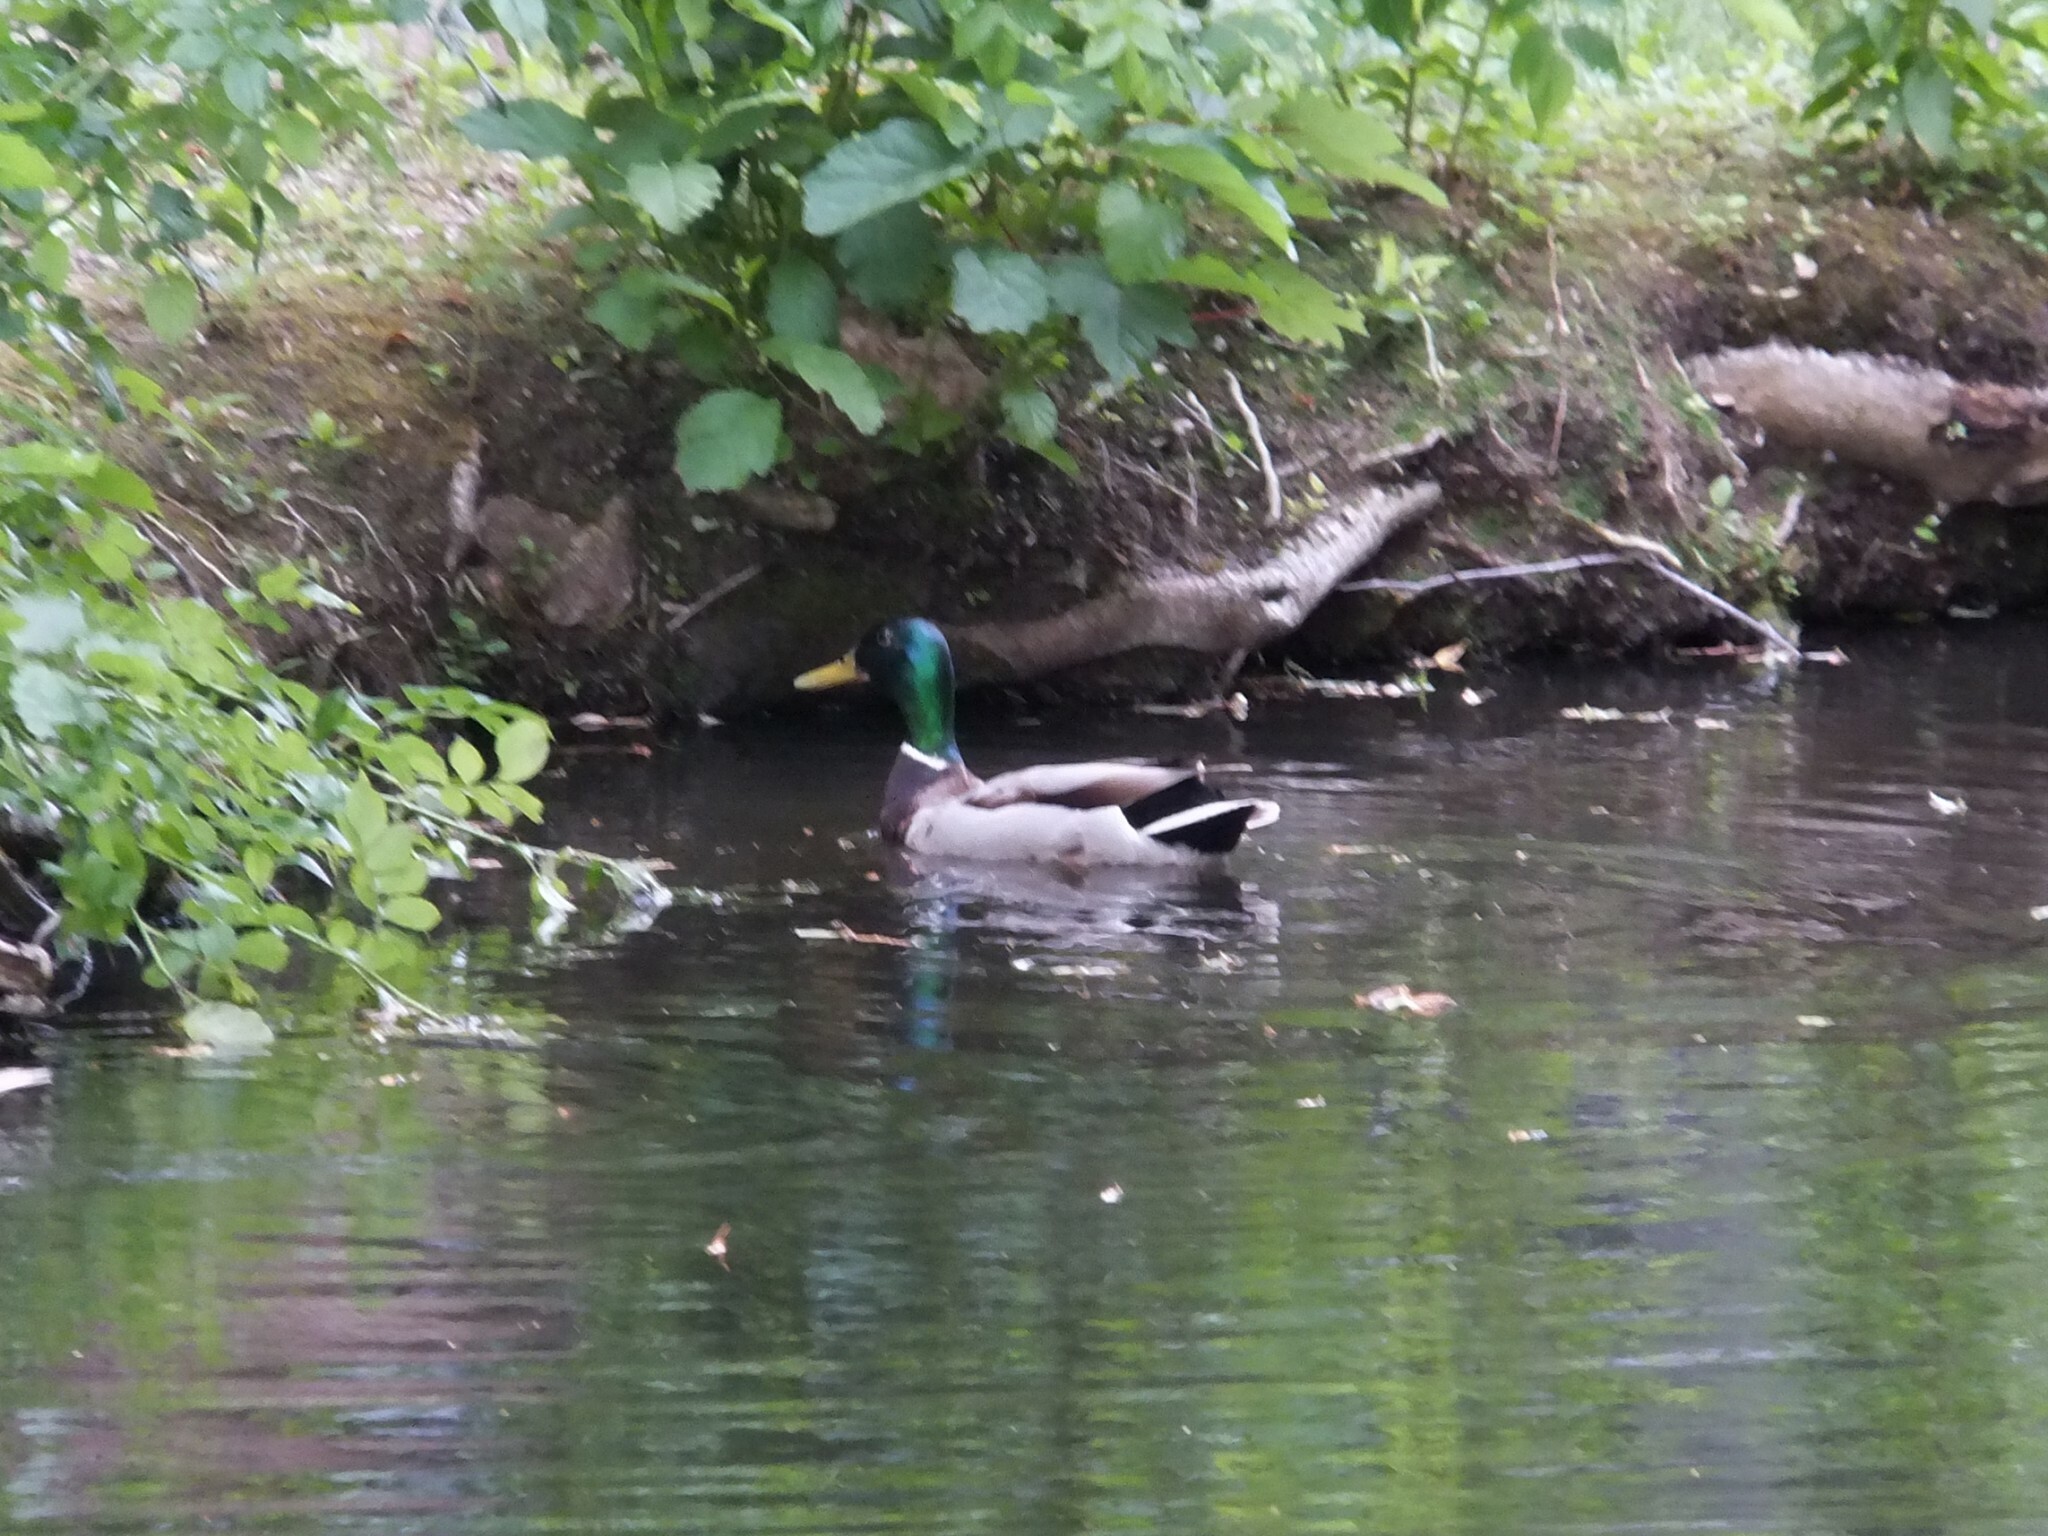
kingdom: Animalia
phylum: Chordata
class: Aves
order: Anseriformes
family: Anatidae
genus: Anas
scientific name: Anas platyrhynchos
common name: Mallard
